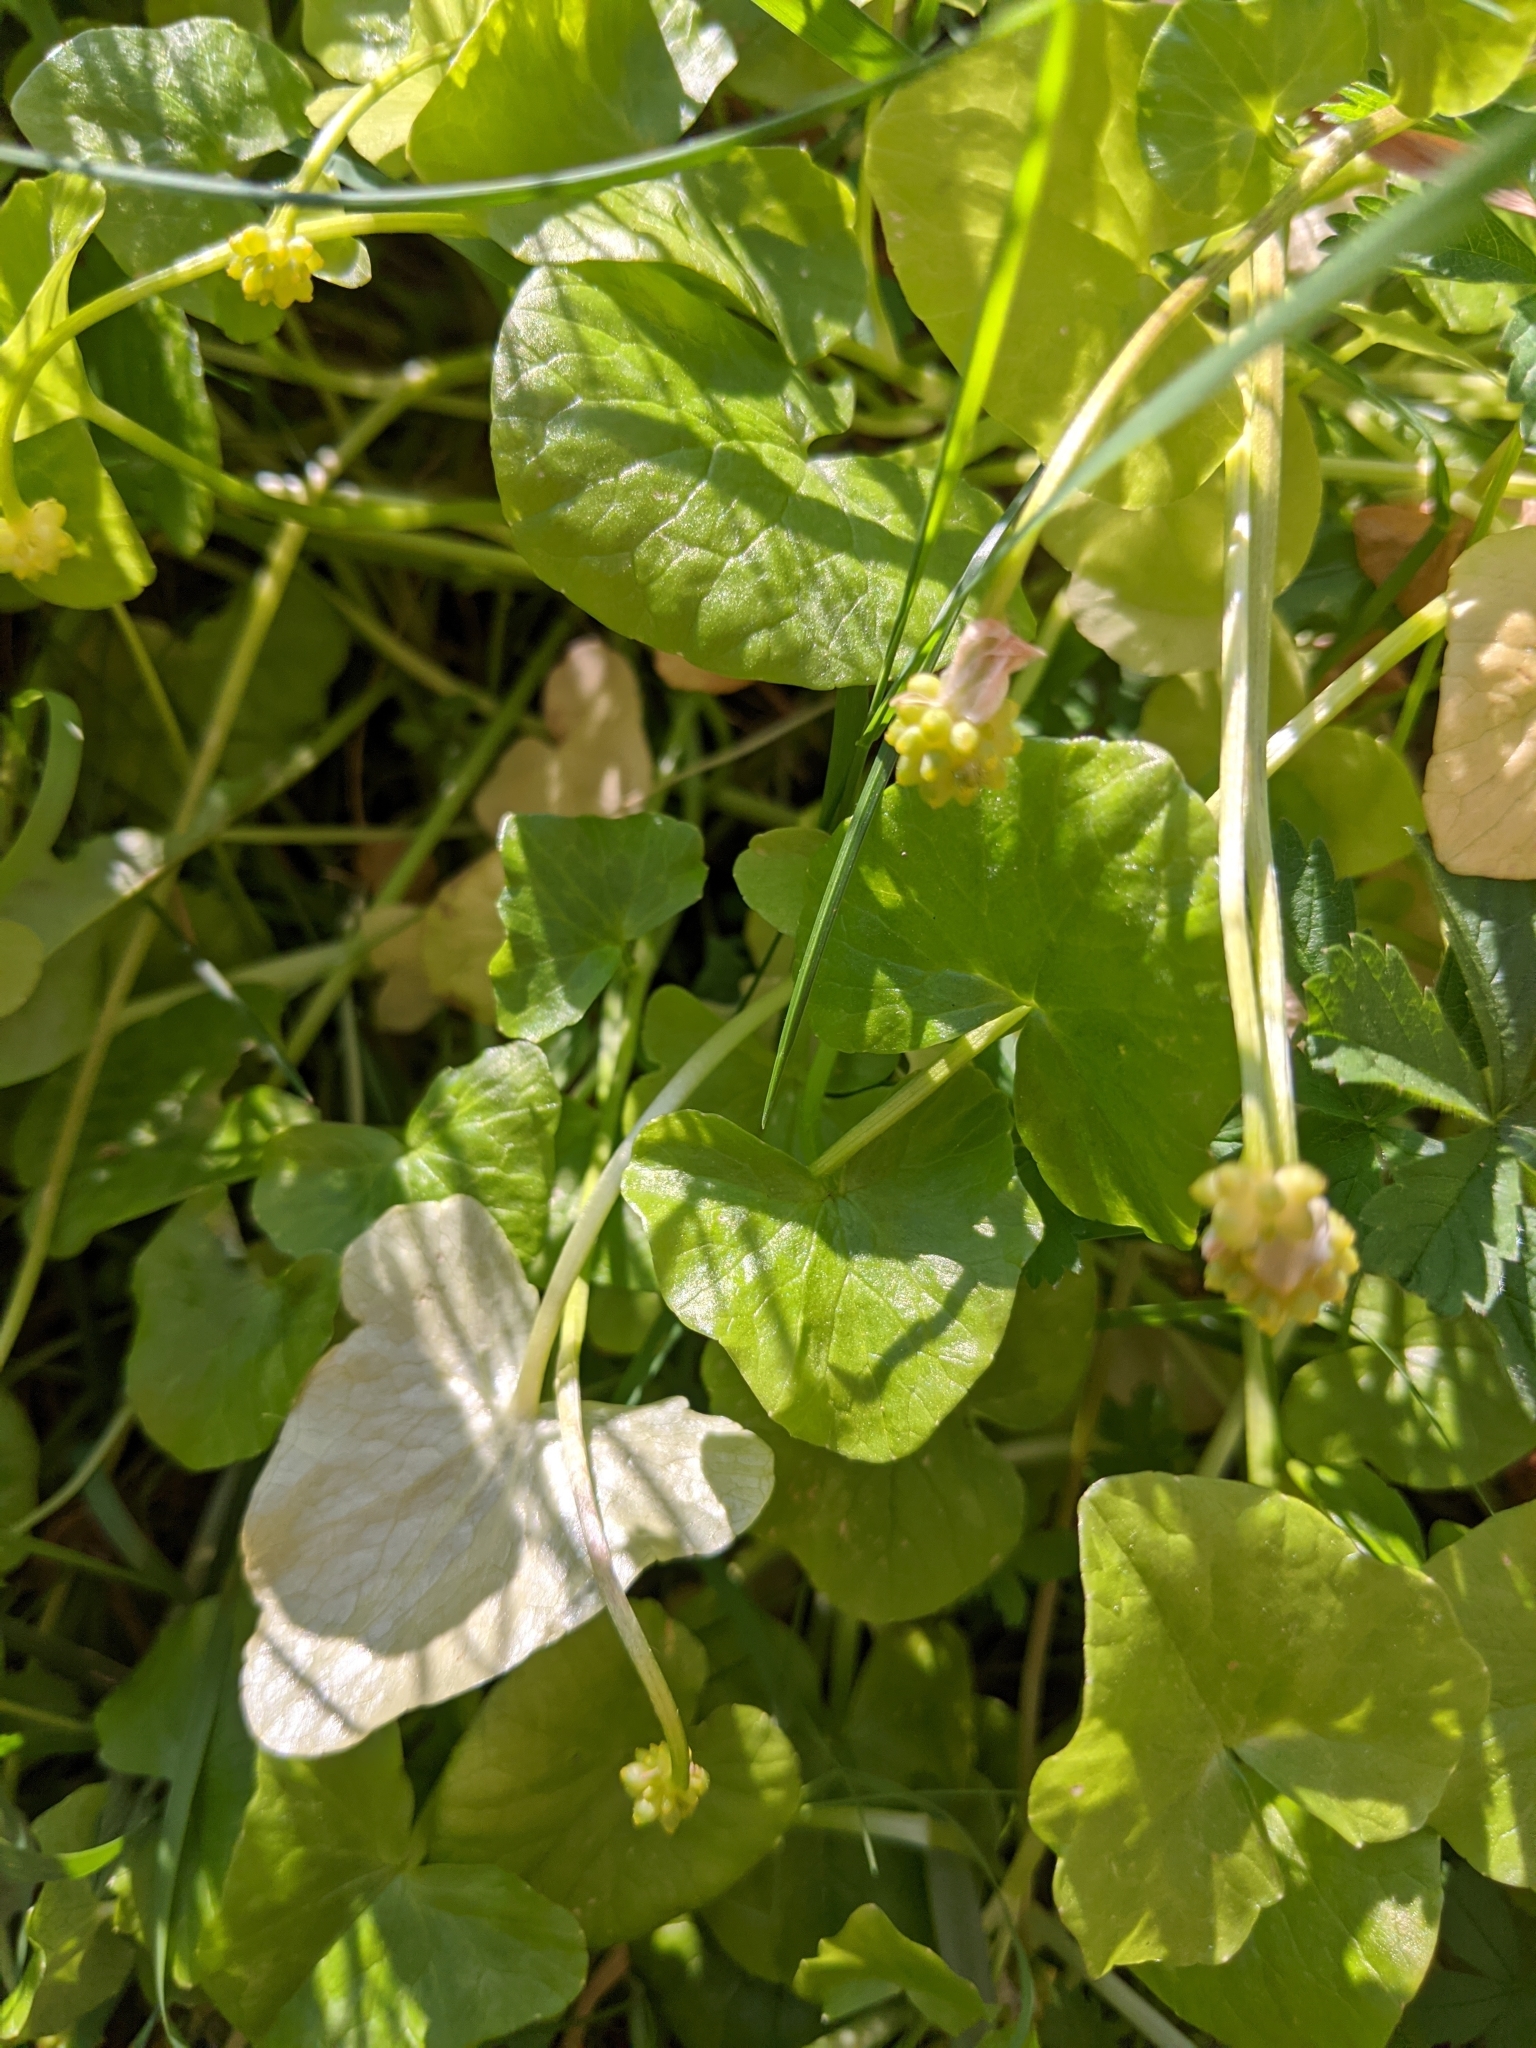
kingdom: Plantae
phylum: Tracheophyta
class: Magnoliopsida
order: Ranunculales
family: Ranunculaceae
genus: Ficaria
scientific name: Ficaria verna
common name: Lesser celandine
